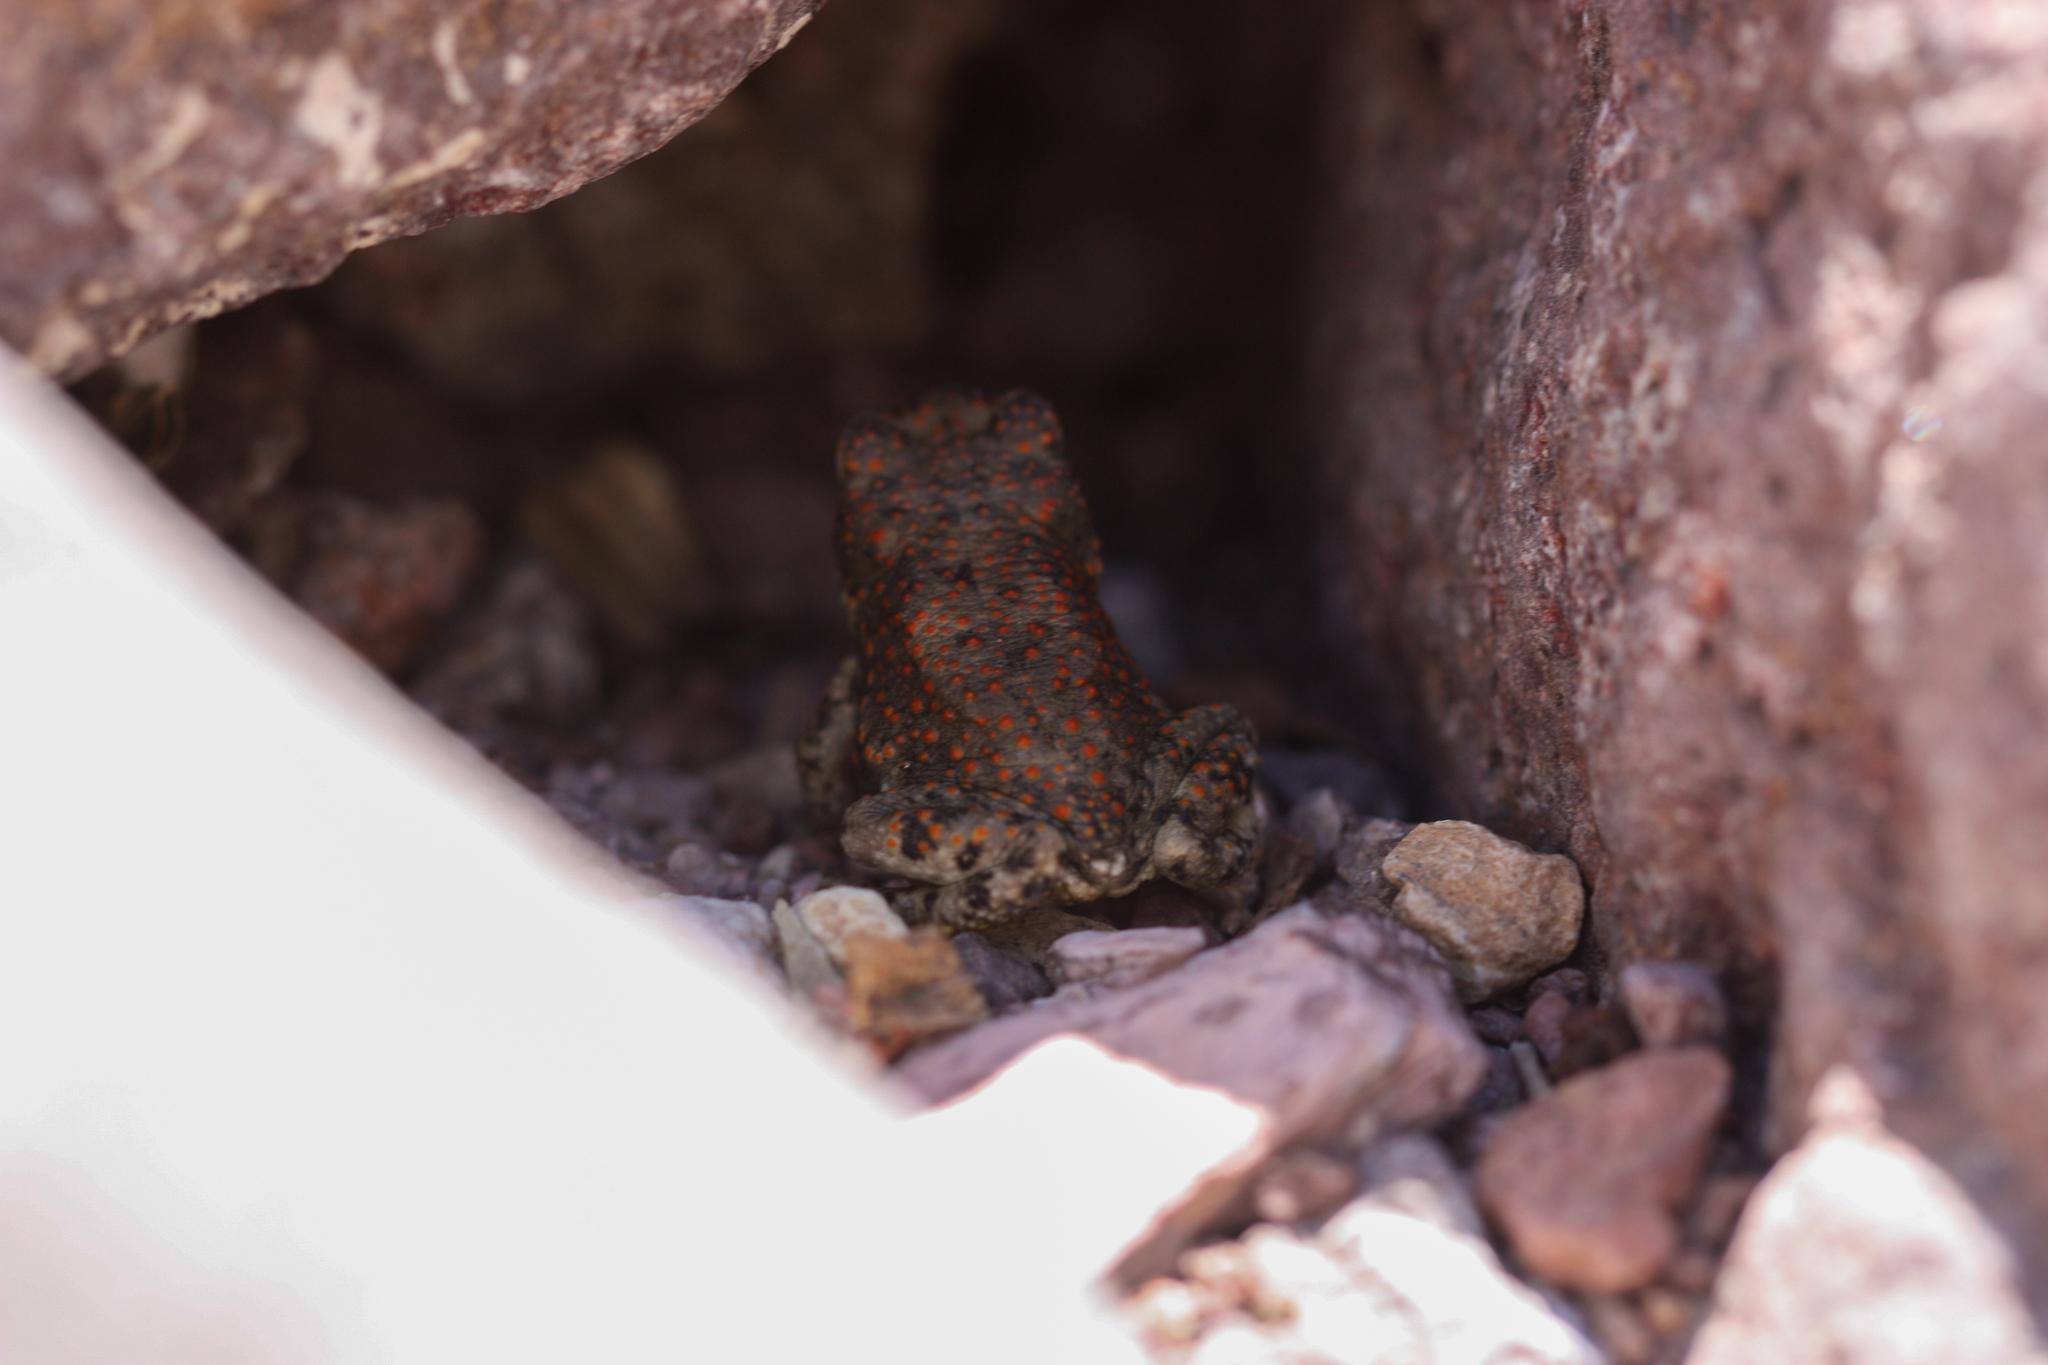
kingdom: Animalia
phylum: Chordata
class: Amphibia
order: Anura
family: Bufonidae
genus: Anaxyrus
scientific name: Anaxyrus punctatus
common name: Red-spotted toad
